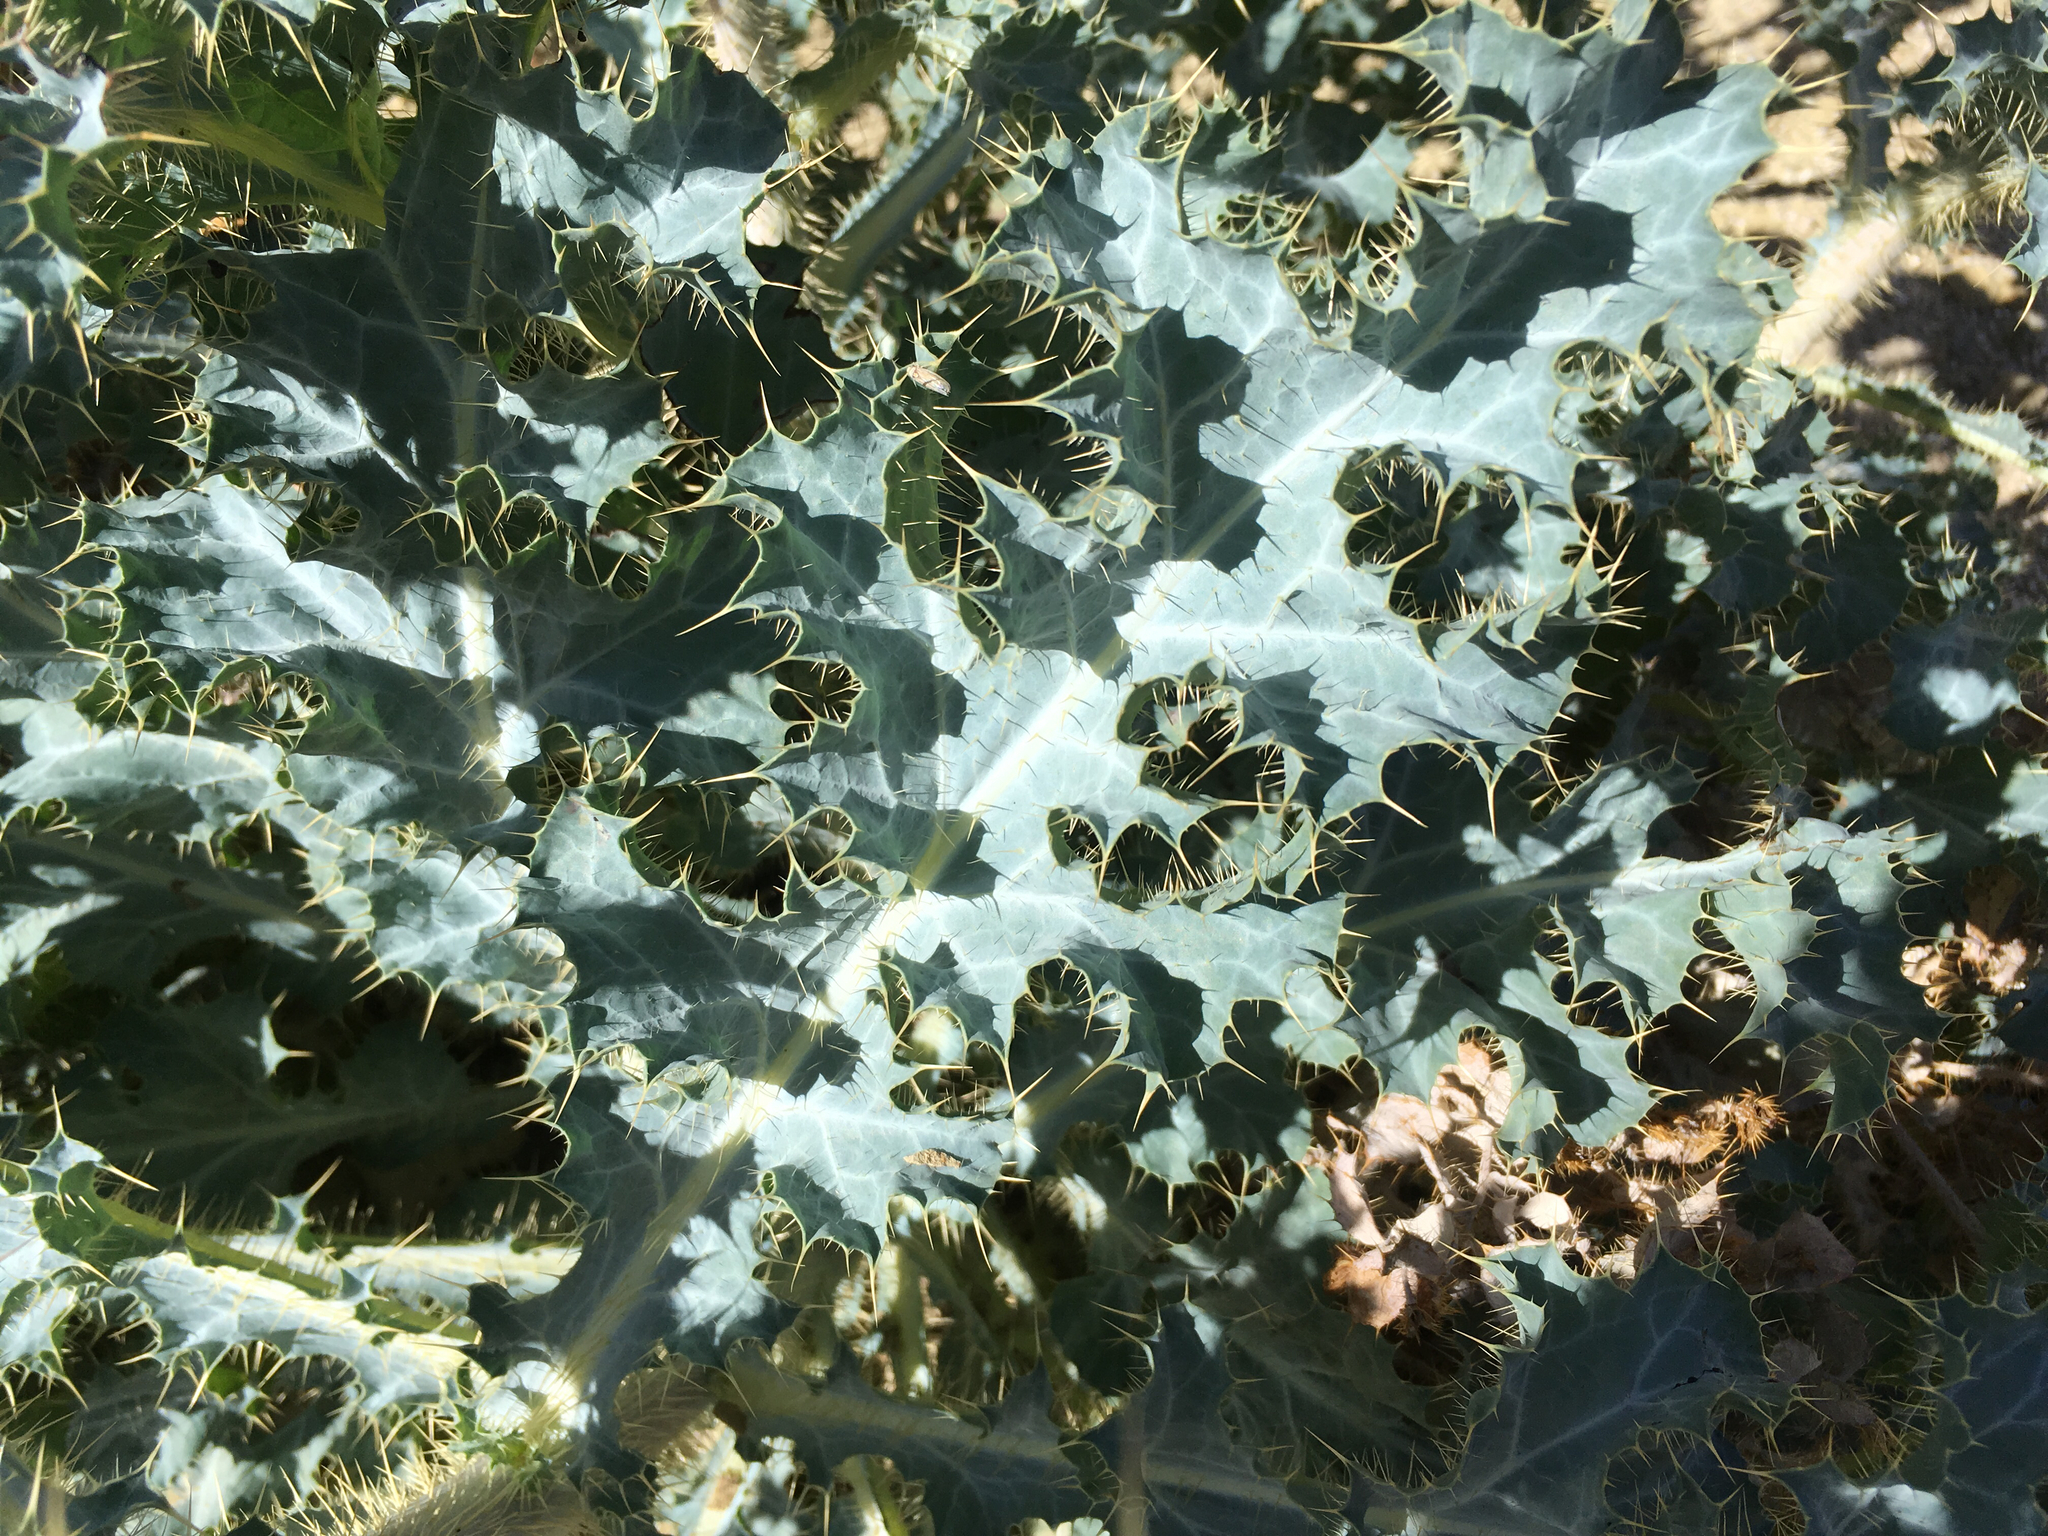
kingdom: Plantae
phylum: Tracheophyta
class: Magnoliopsida
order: Ranunculales
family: Papaveraceae
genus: Argemone
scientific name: Argemone munita
